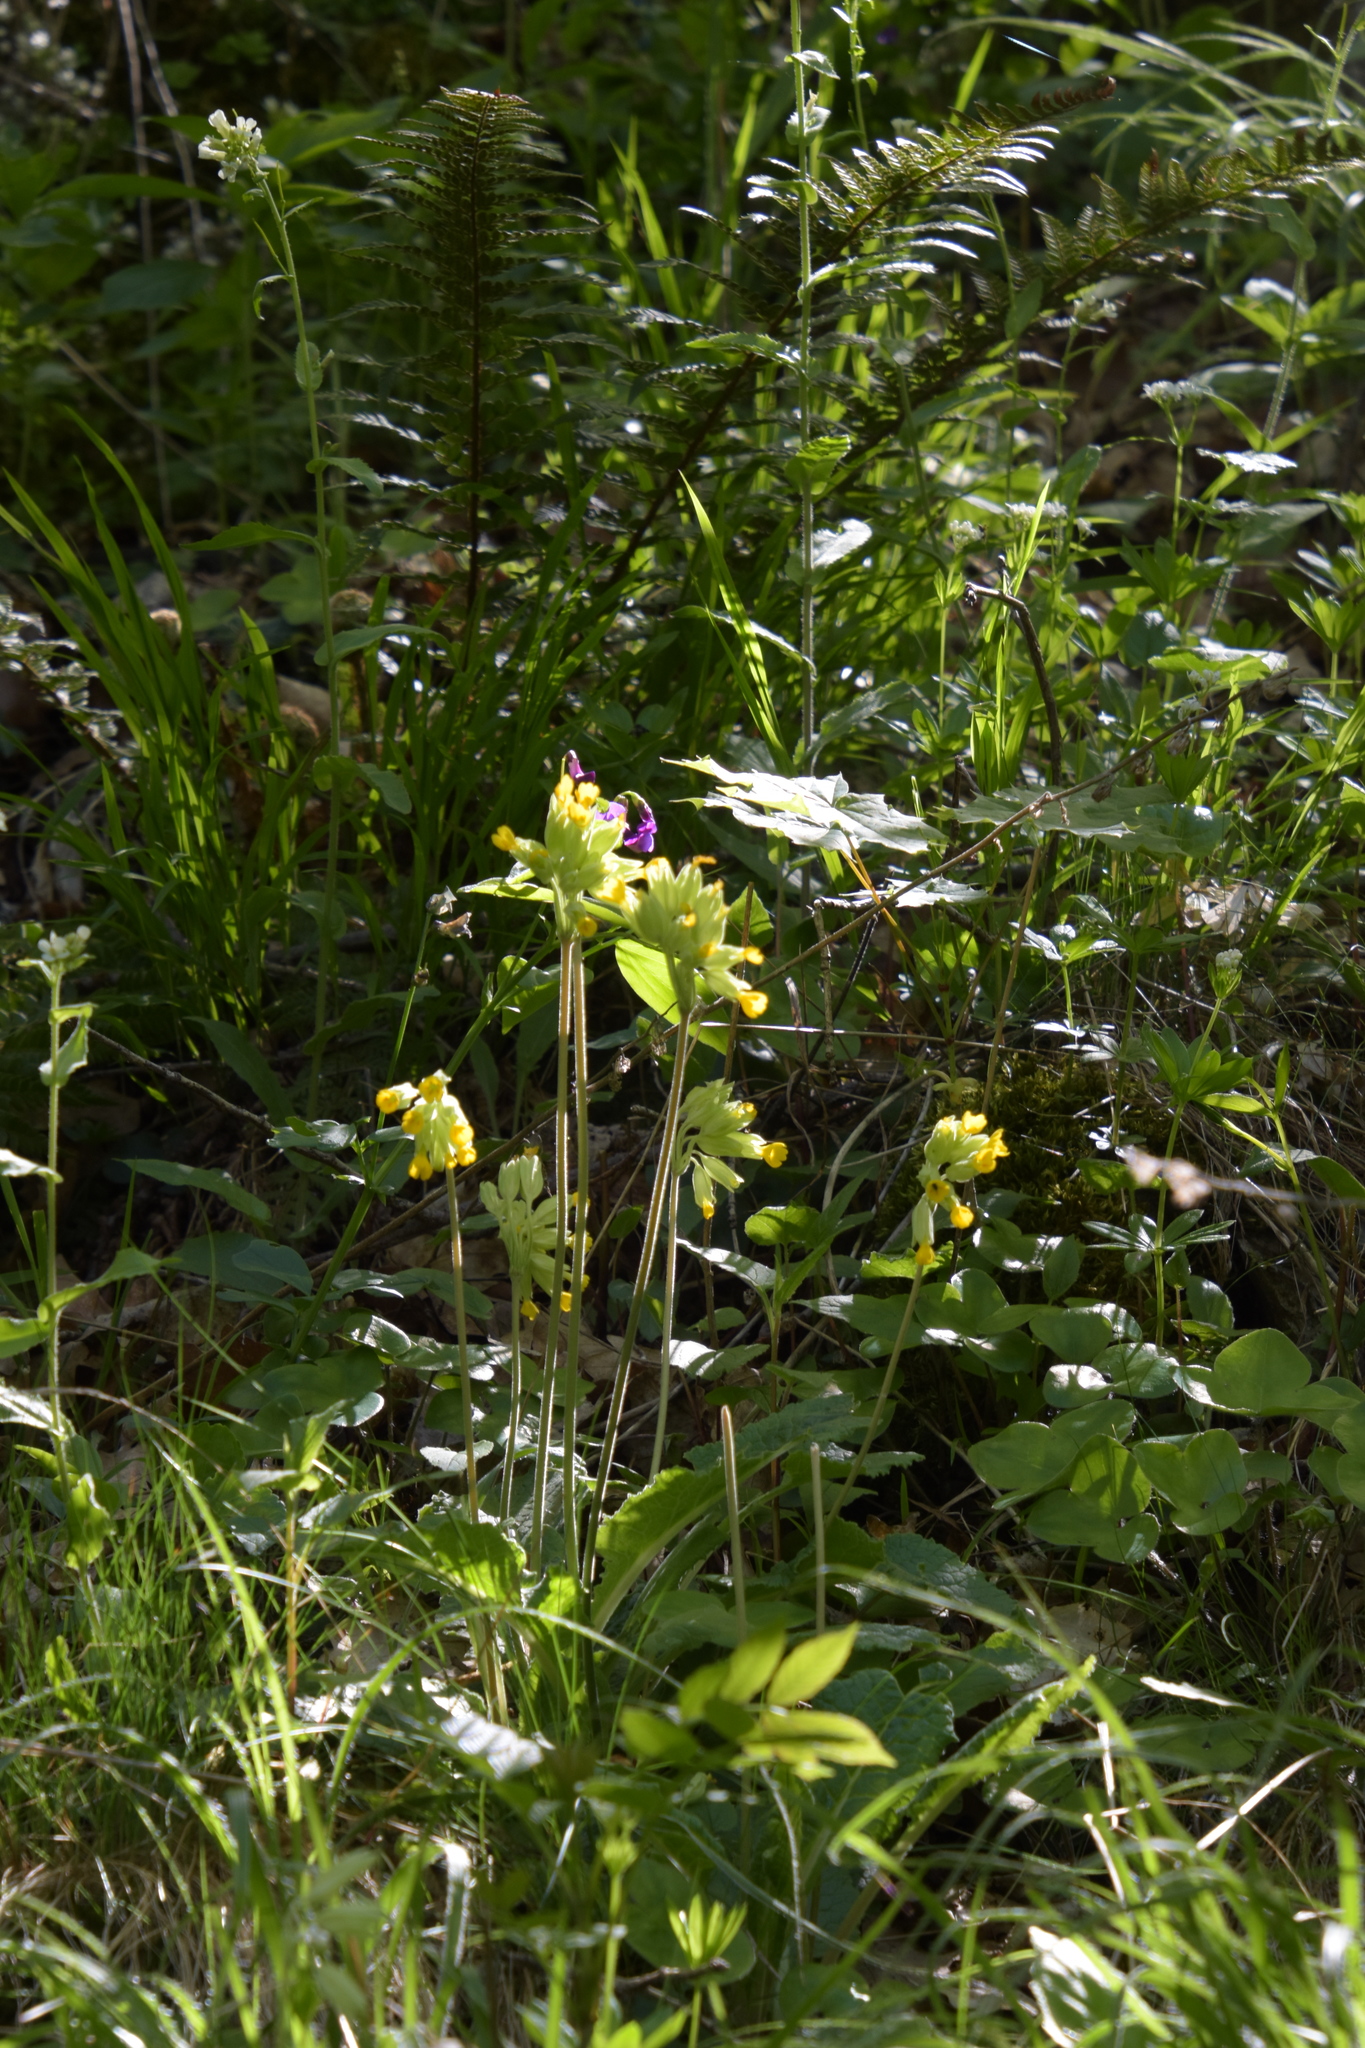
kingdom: Plantae
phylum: Tracheophyta
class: Magnoliopsida
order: Ericales
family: Primulaceae
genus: Primula
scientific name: Primula veris
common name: Cowslip
